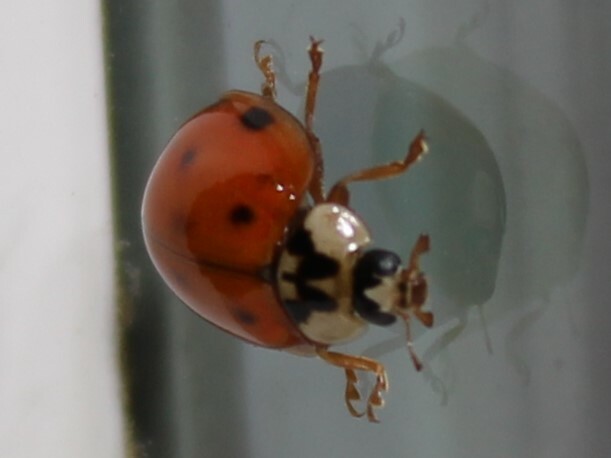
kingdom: Animalia
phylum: Arthropoda
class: Insecta
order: Coleoptera
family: Coccinellidae
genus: Harmonia
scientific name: Harmonia axyridis
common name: Harlequin ladybird
